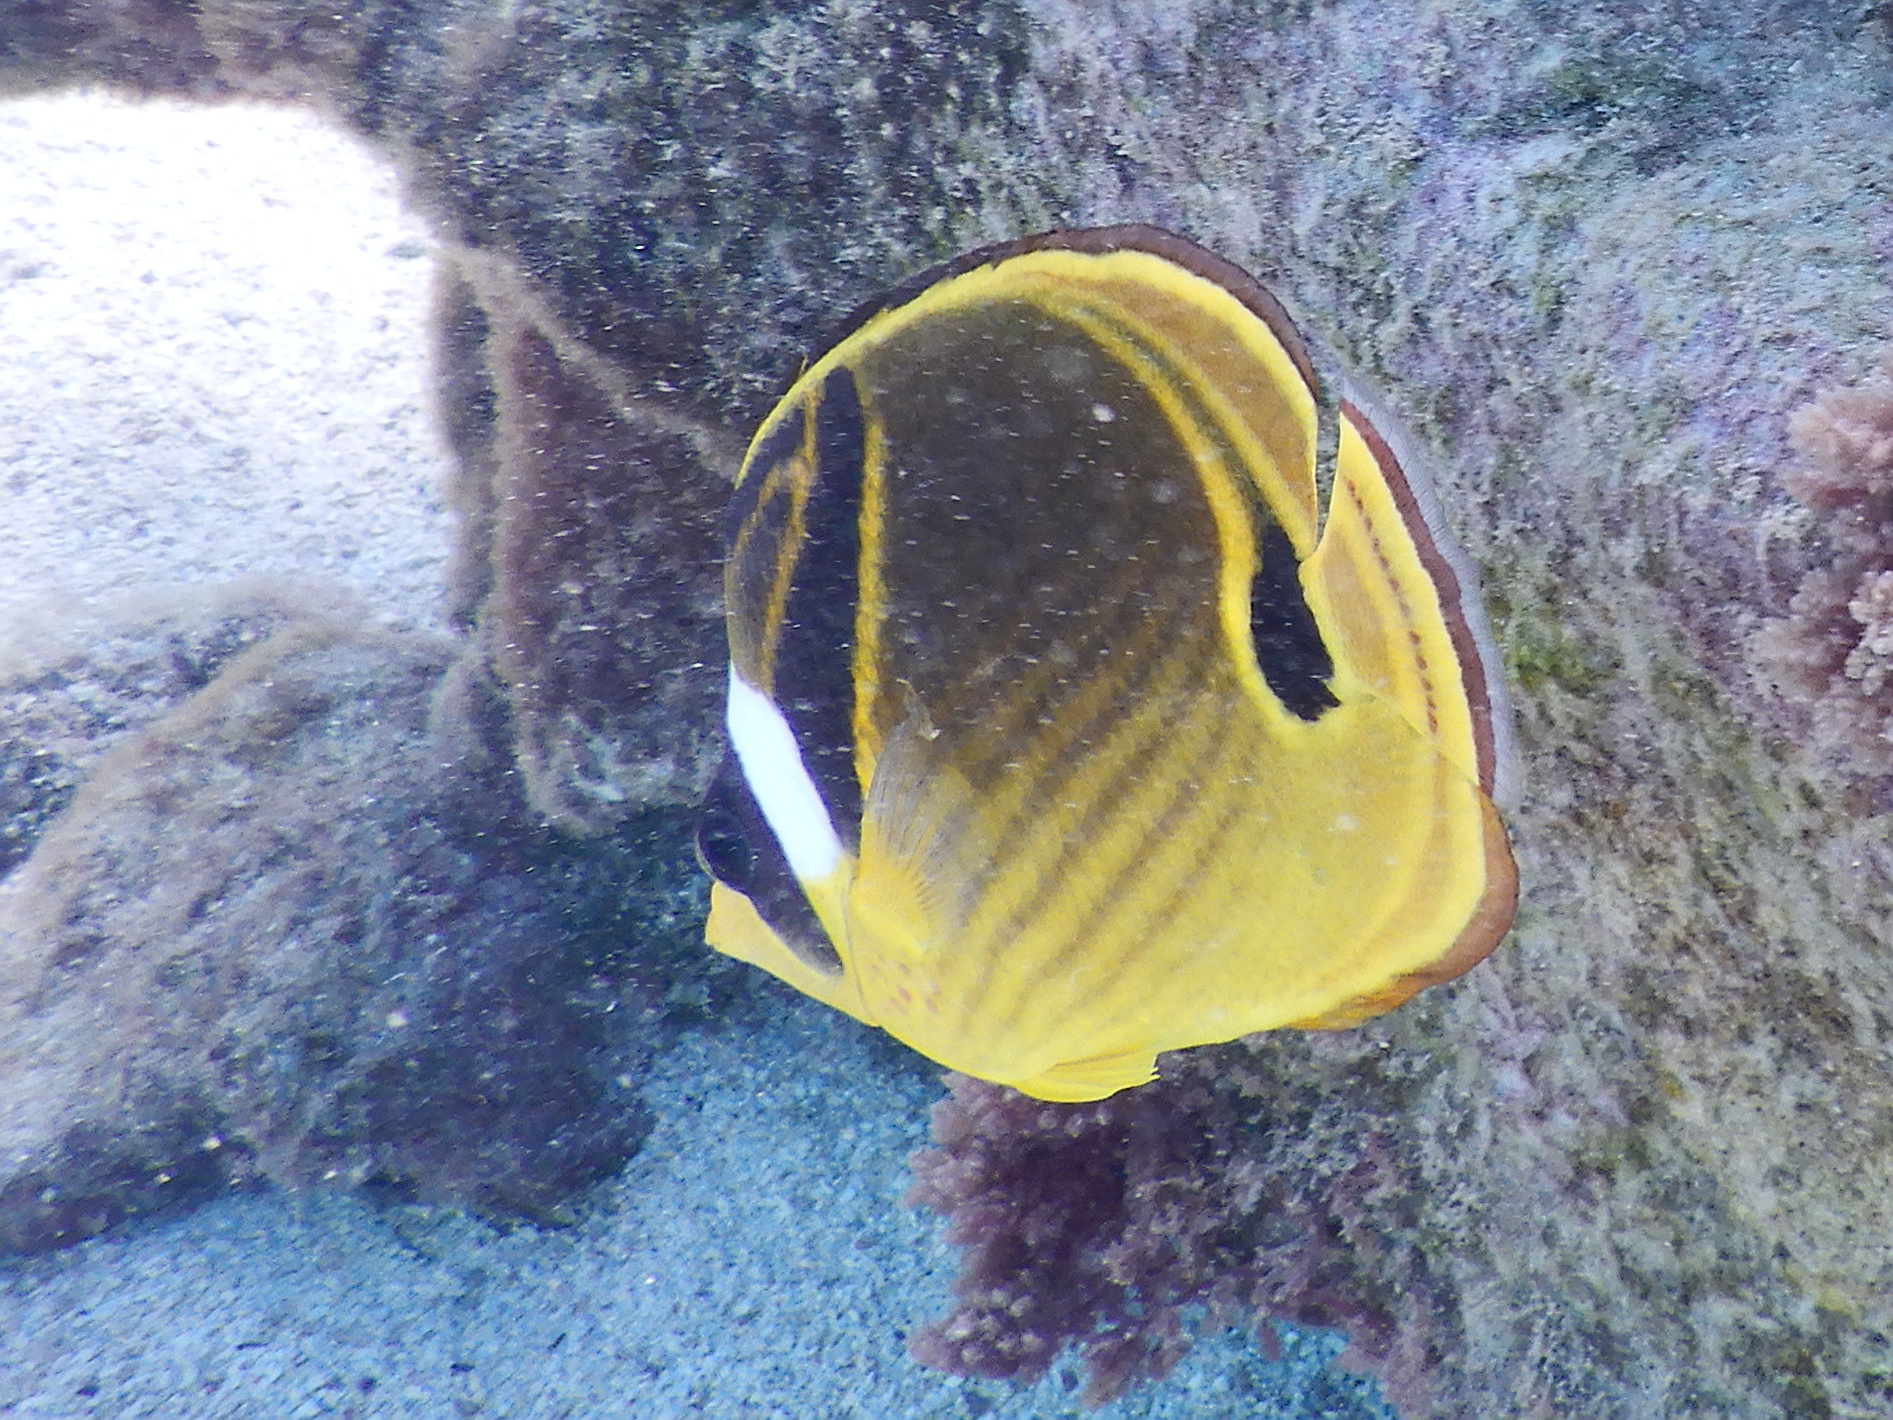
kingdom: Animalia
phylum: Chordata
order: Perciformes
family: Chaetodontidae
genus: Chaetodon
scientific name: Chaetodon lunula
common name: Raccoon butterflyfish
